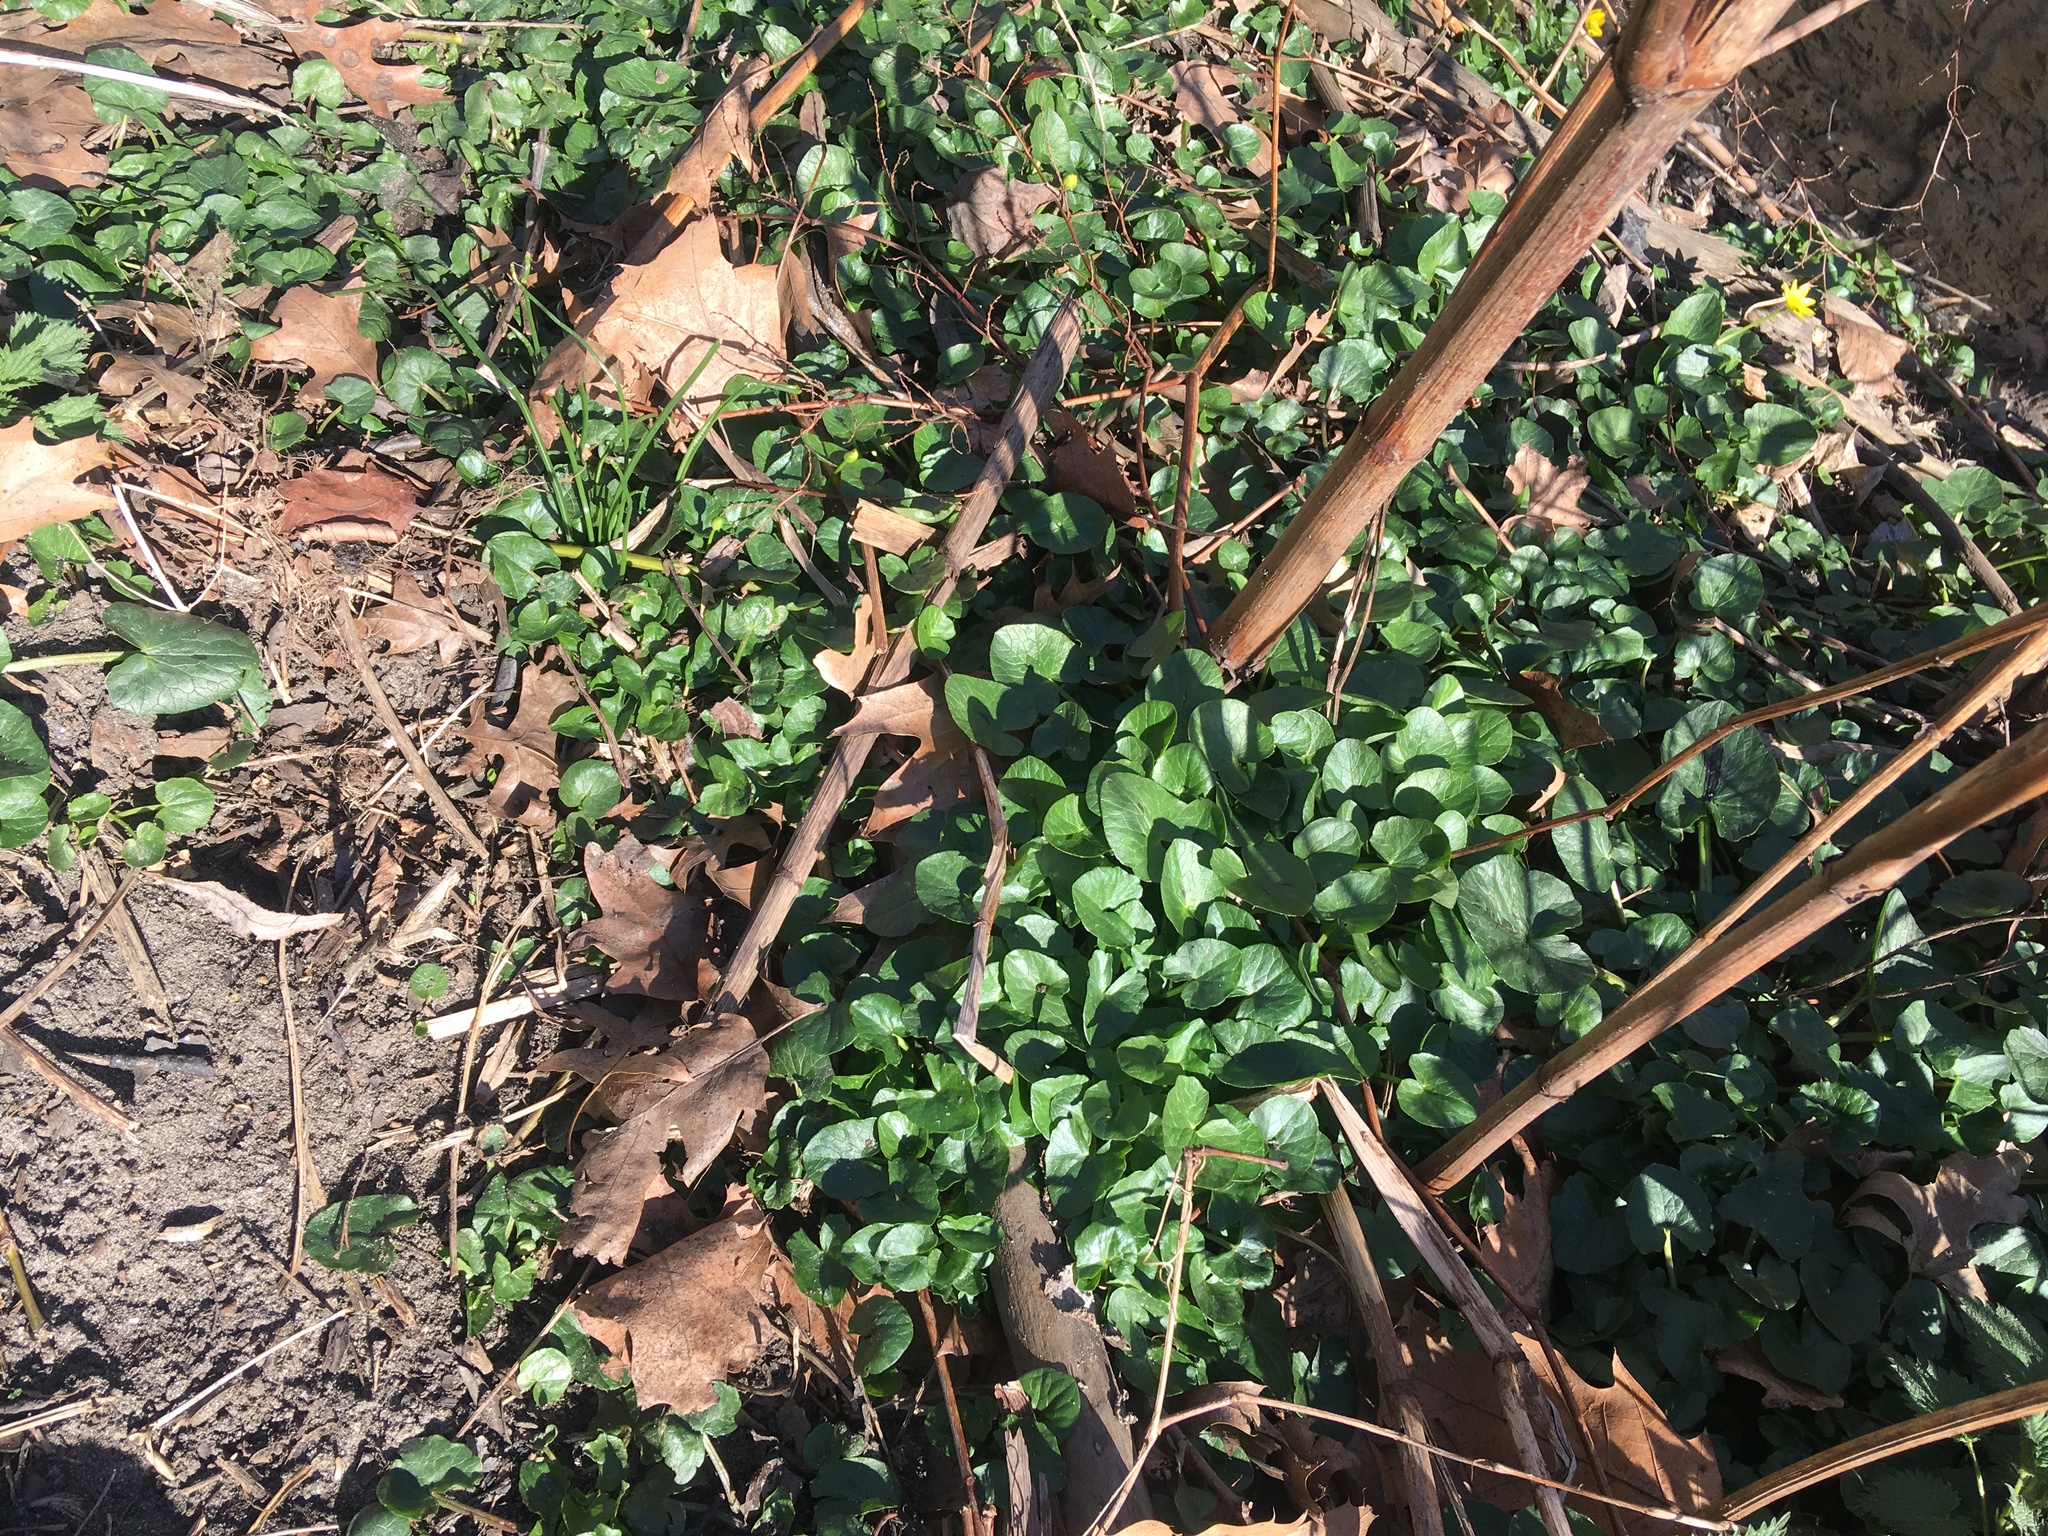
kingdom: Plantae
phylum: Tracheophyta
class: Magnoliopsida
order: Ranunculales
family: Ranunculaceae
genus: Ficaria
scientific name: Ficaria verna
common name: Lesser celandine
